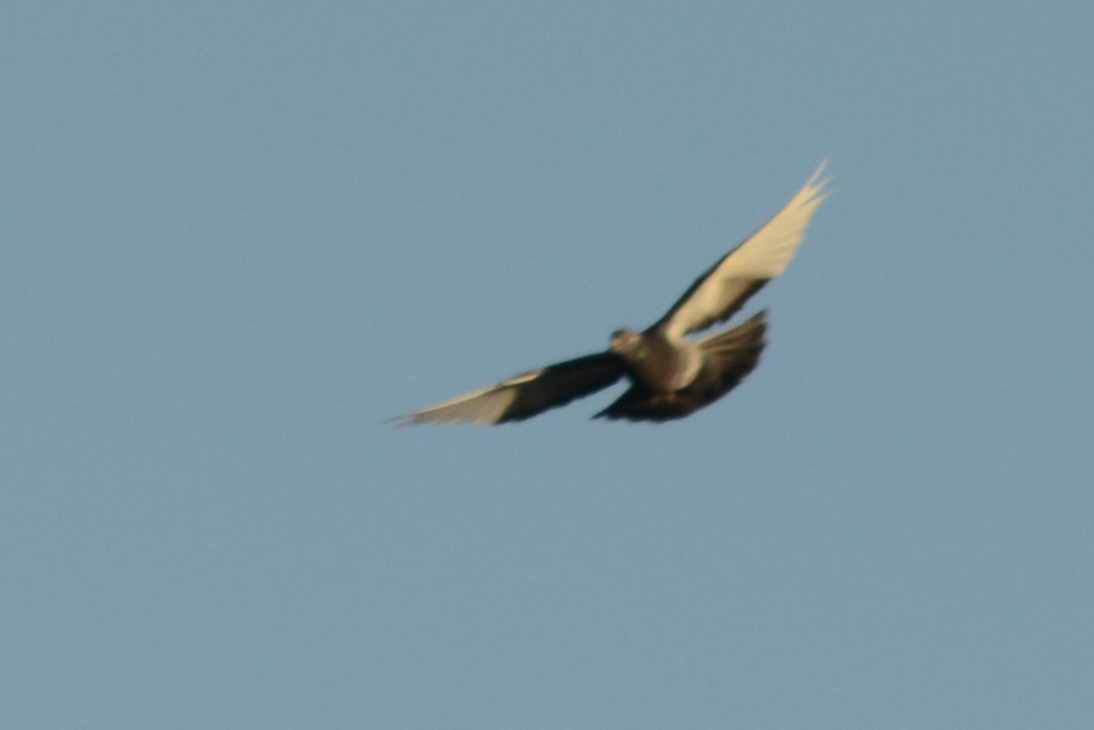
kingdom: Animalia
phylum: Chordata
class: Aves
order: Columbiformes
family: Columbidae
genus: Columba
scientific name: Columba livia
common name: Rock pigeon
